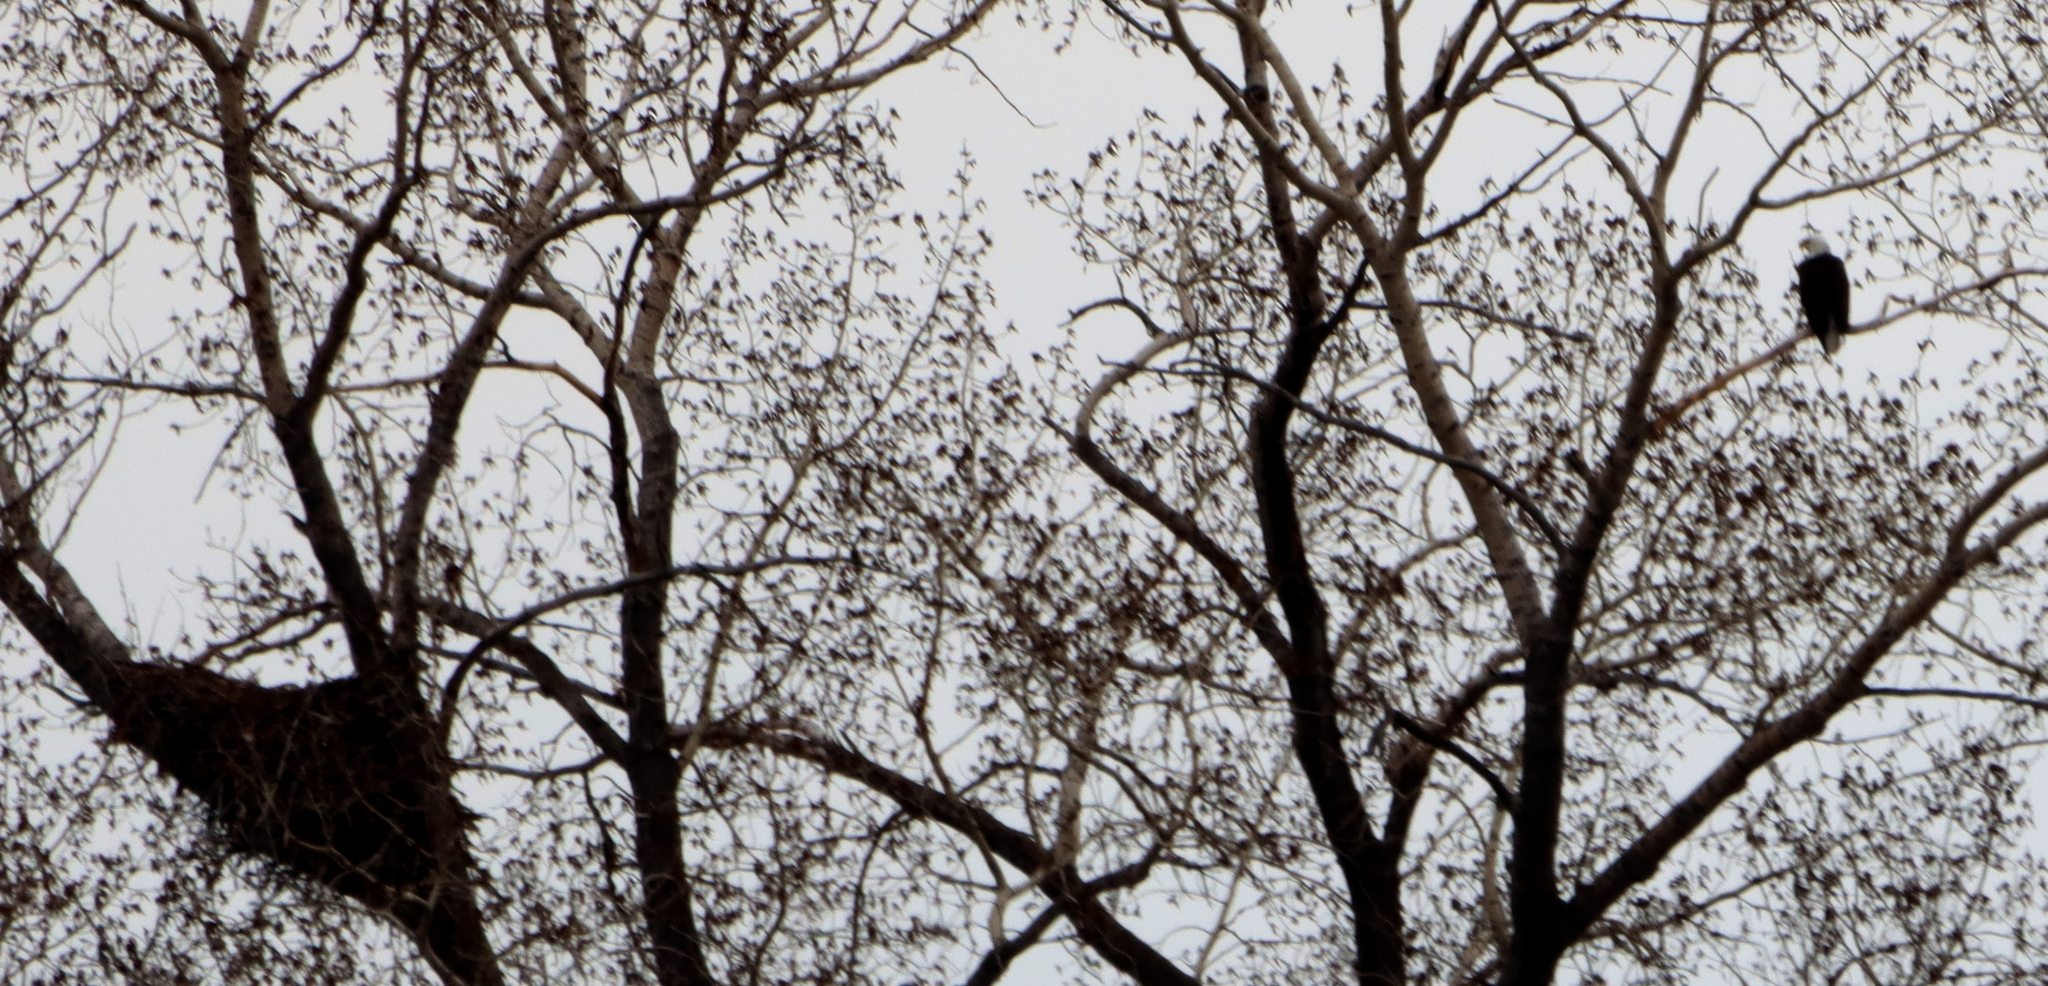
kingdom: Animalia
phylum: Chordata
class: Aves
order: Accipitriformes
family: Accipitridae
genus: Haliaeetus
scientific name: Haliaeetus leucocephalus
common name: Bald eagle
